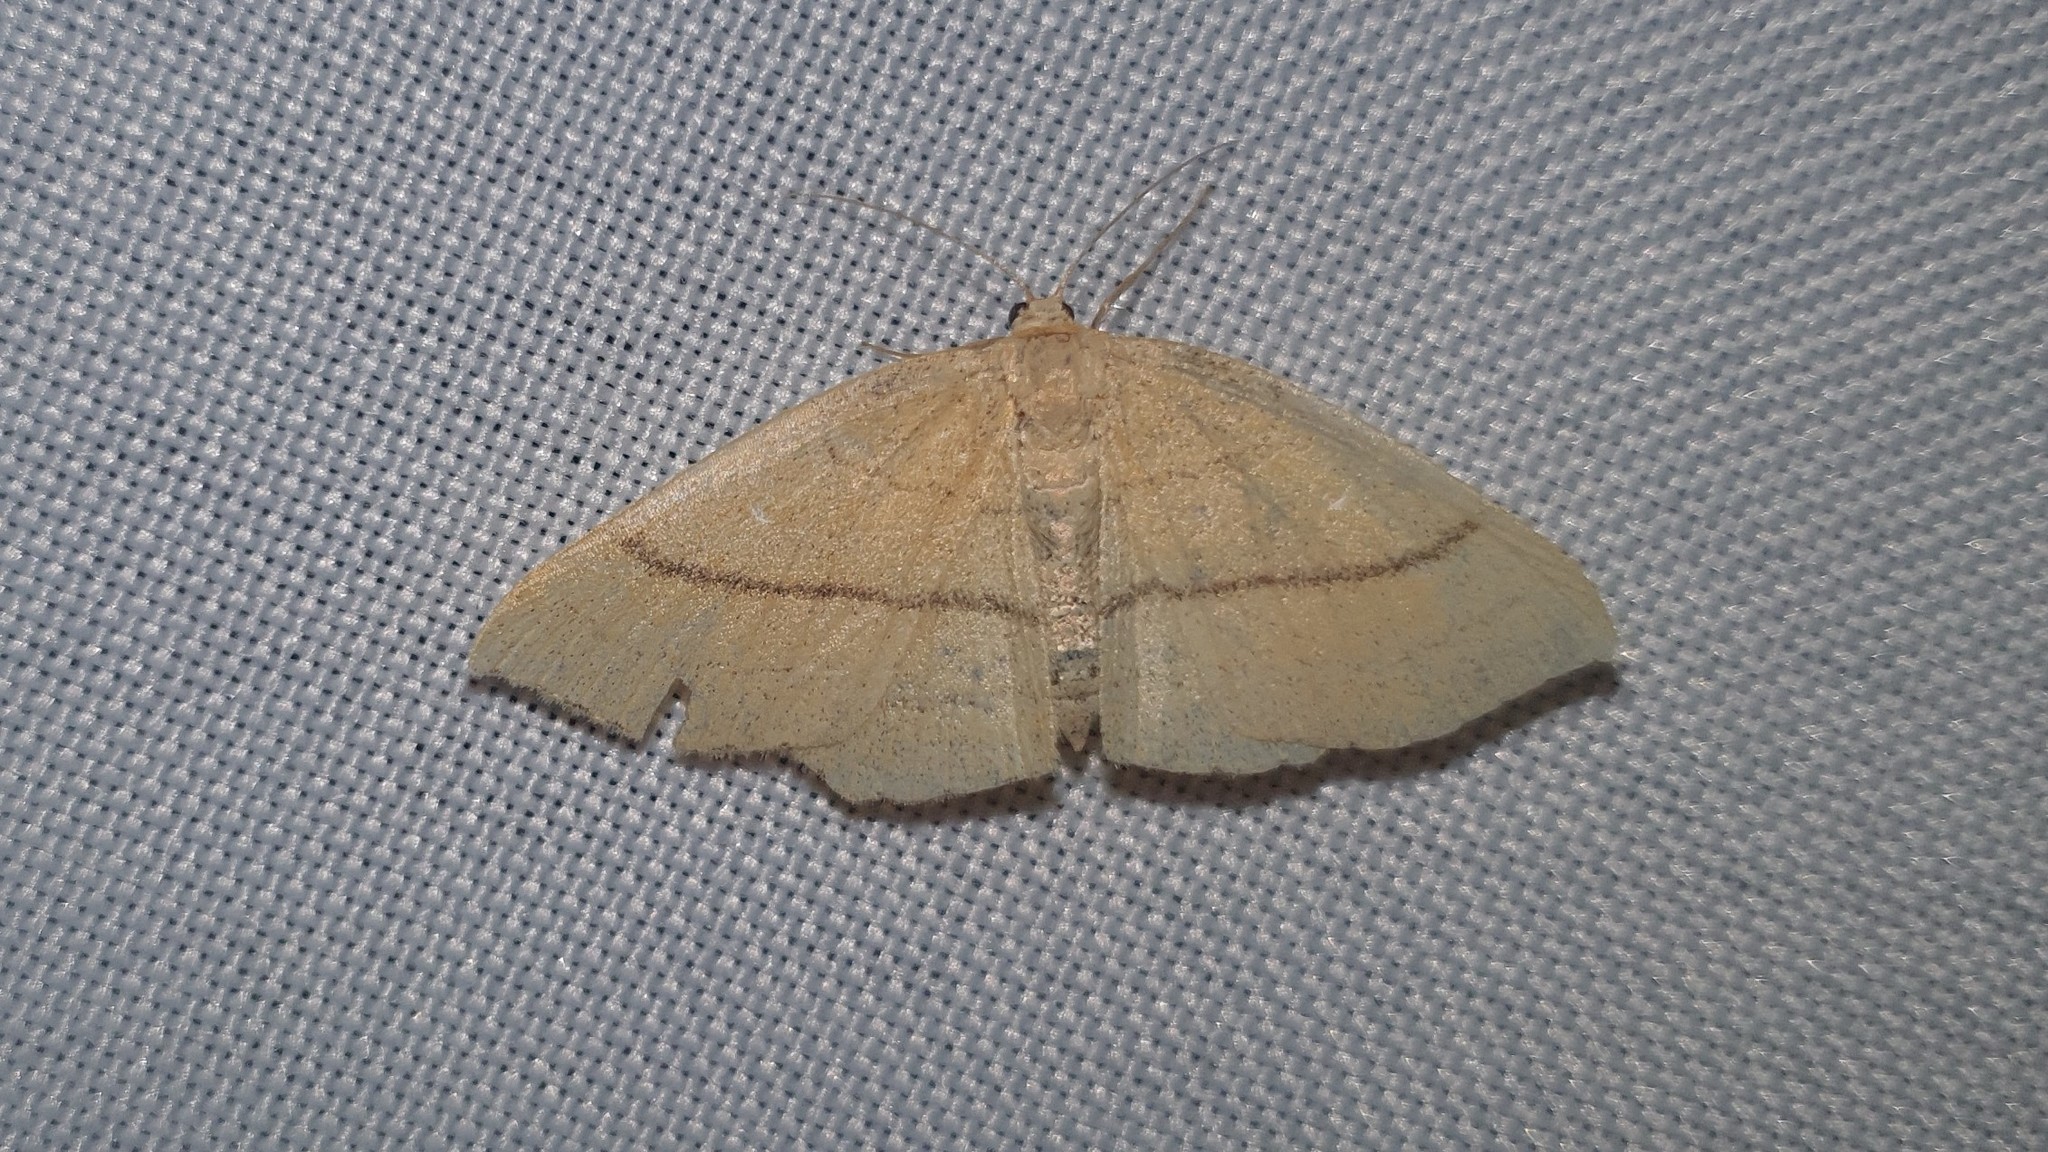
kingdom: Animalia
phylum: Arthropoda
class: Insecta
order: Lepidoptera
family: Geometridae
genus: Cyclophora
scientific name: Cyclophora linearia
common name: Clay triple-lines
